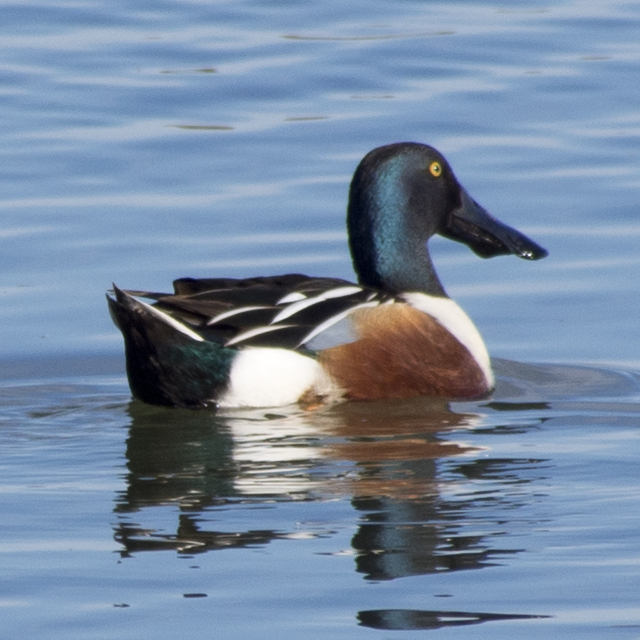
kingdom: Animalia
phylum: Chordata
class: Aves
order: Anseriformes
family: Anatidae
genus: Spatula
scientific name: Spatula clypeata
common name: Northern shoveler
